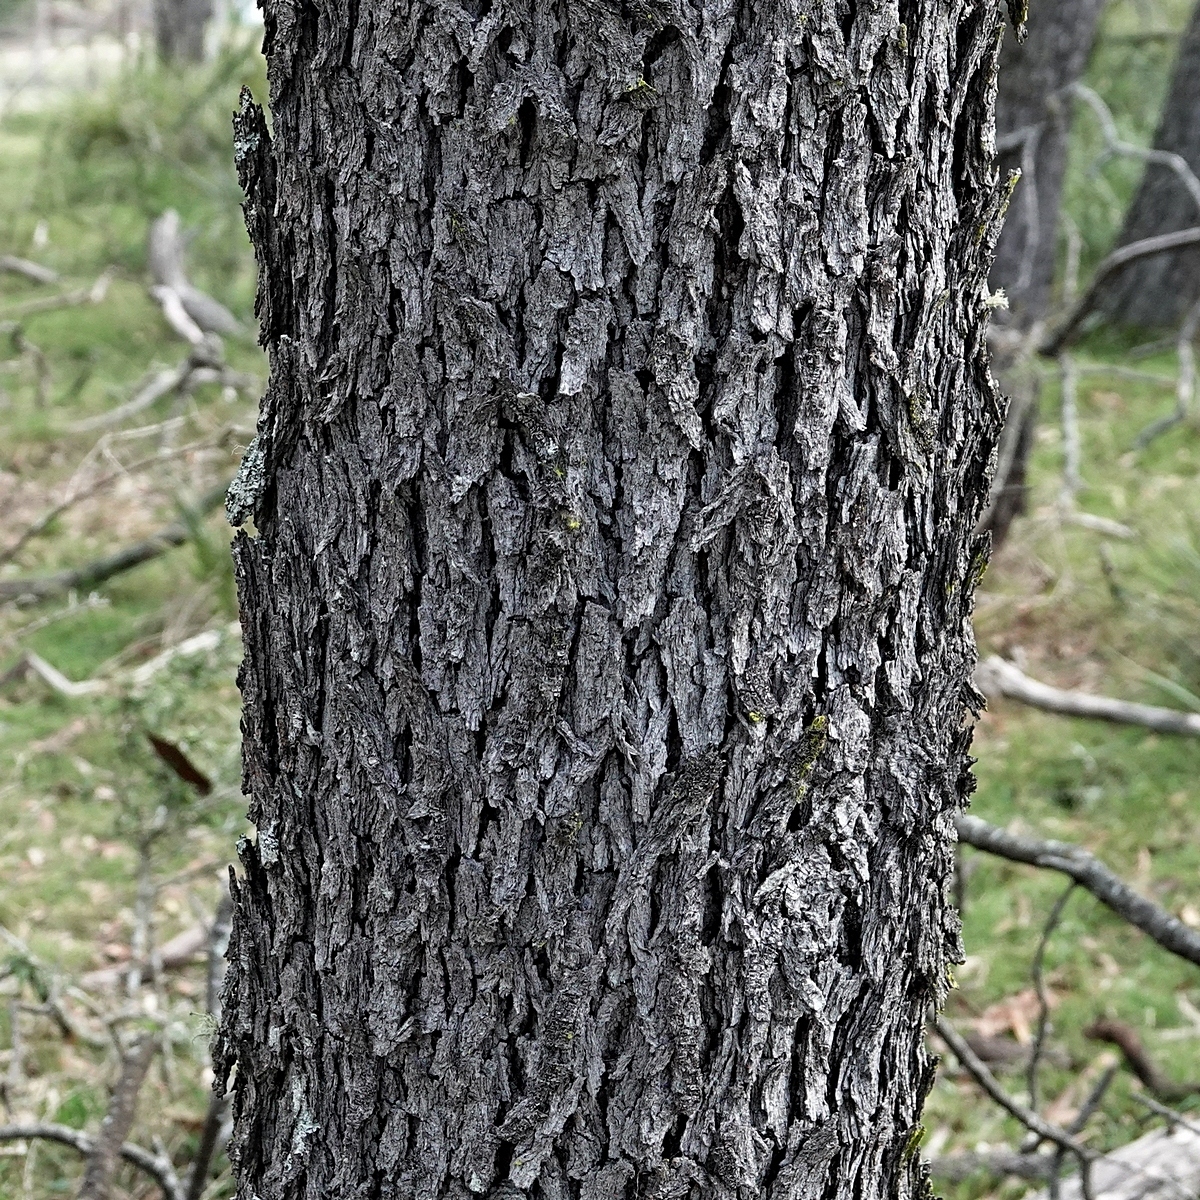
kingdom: Plantae
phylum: Tracheophyta
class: Magnoliopsida
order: Fabales
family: Fabaceae
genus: Acacia
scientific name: Acacia implexa
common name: Black wattle
